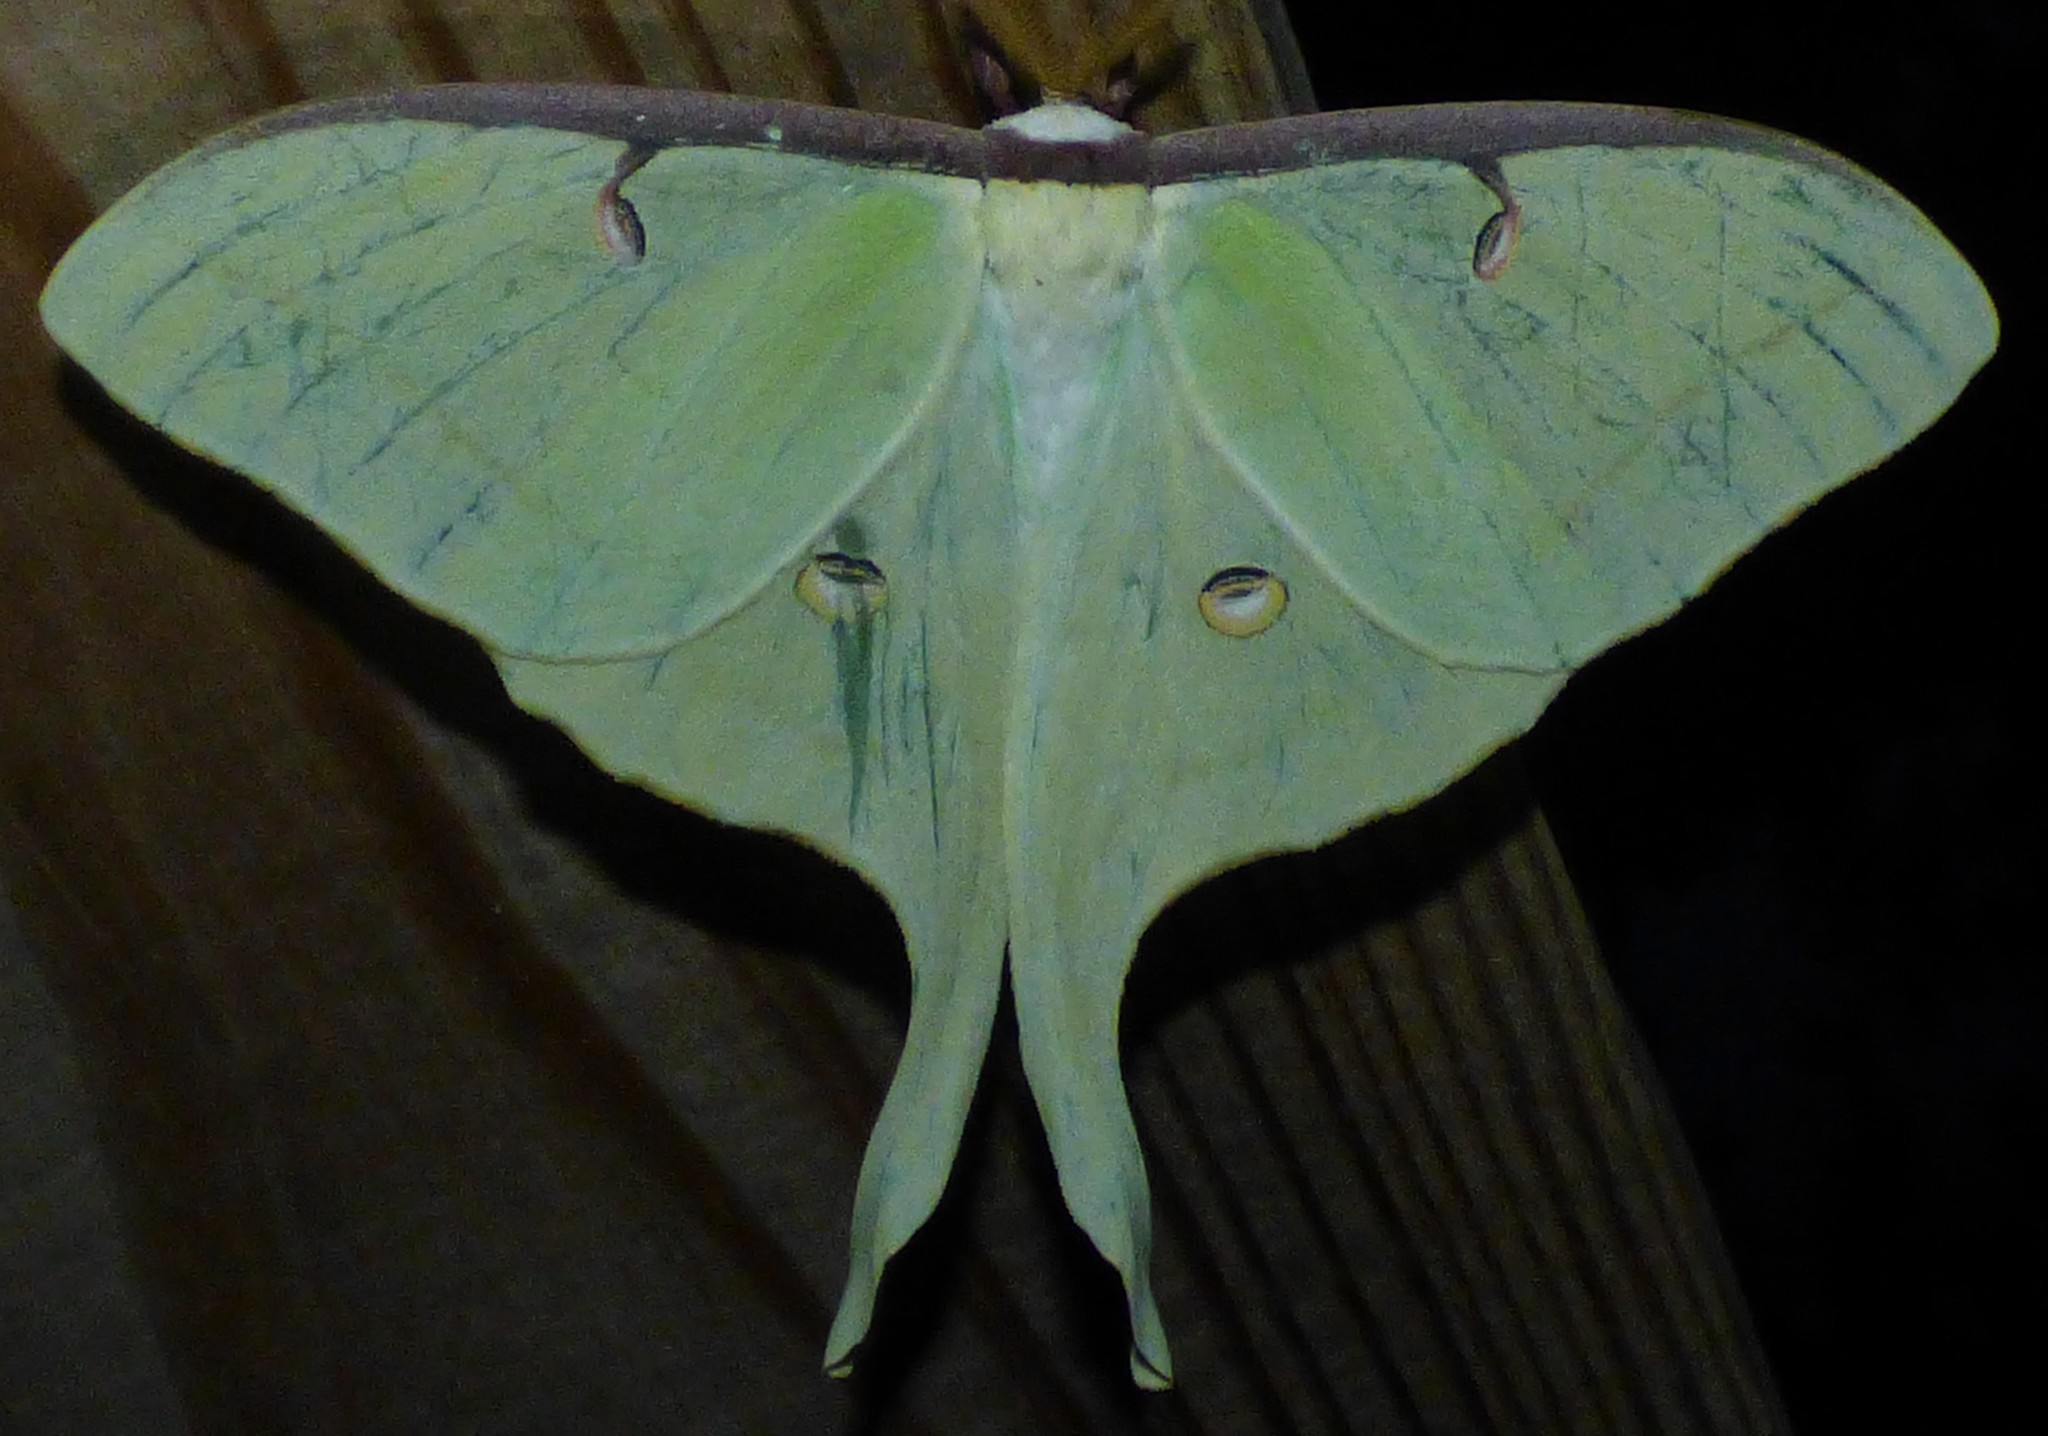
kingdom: Animalia
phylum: Arthropoda
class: Insecta
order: Lepidoptera
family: Saturniidae
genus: Actias
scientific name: Actias luna
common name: Luna moth
